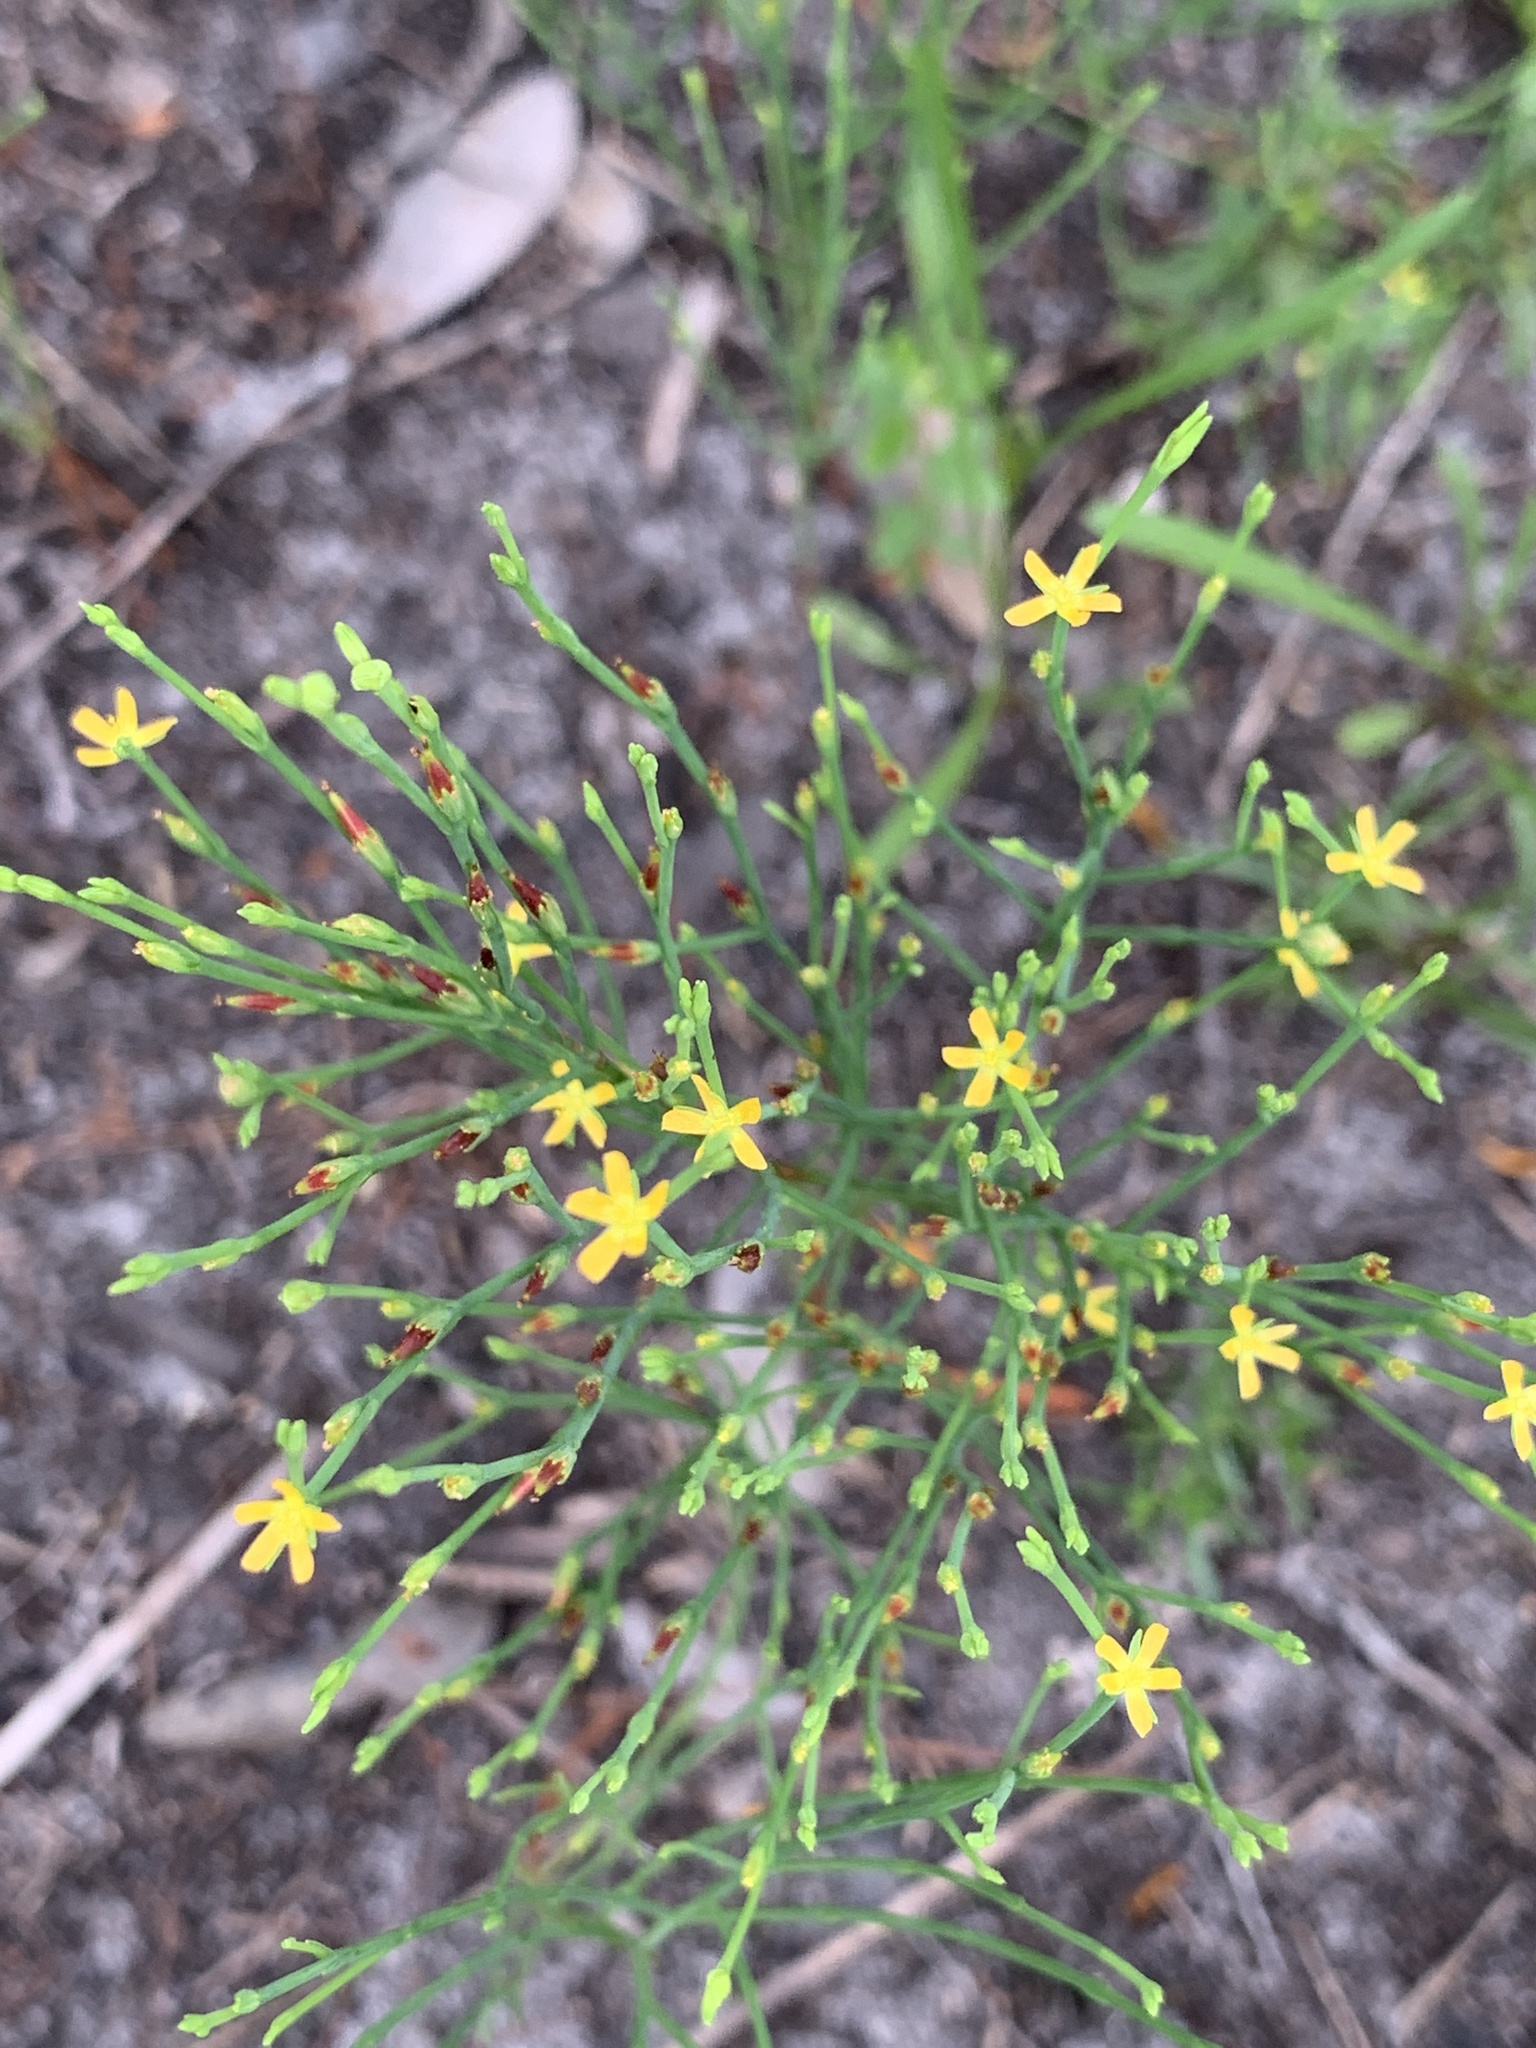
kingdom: Plantae
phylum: Tracheophyta
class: Magnoliopsida
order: Malpighiales
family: Hypericaceae
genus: Hypericum
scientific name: Hypericum gentianoides
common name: Gentian-leaved st. john's-wort
